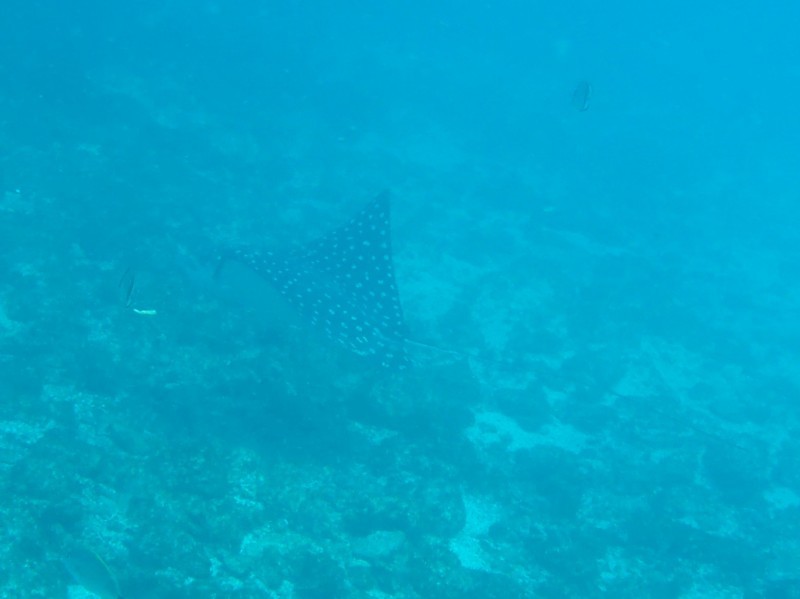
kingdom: Animalia
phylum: Chordata
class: Elasmobranchii
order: Myliobatiformes
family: Myliobatidae
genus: Aetobatus
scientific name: Aetobatus laticeps
